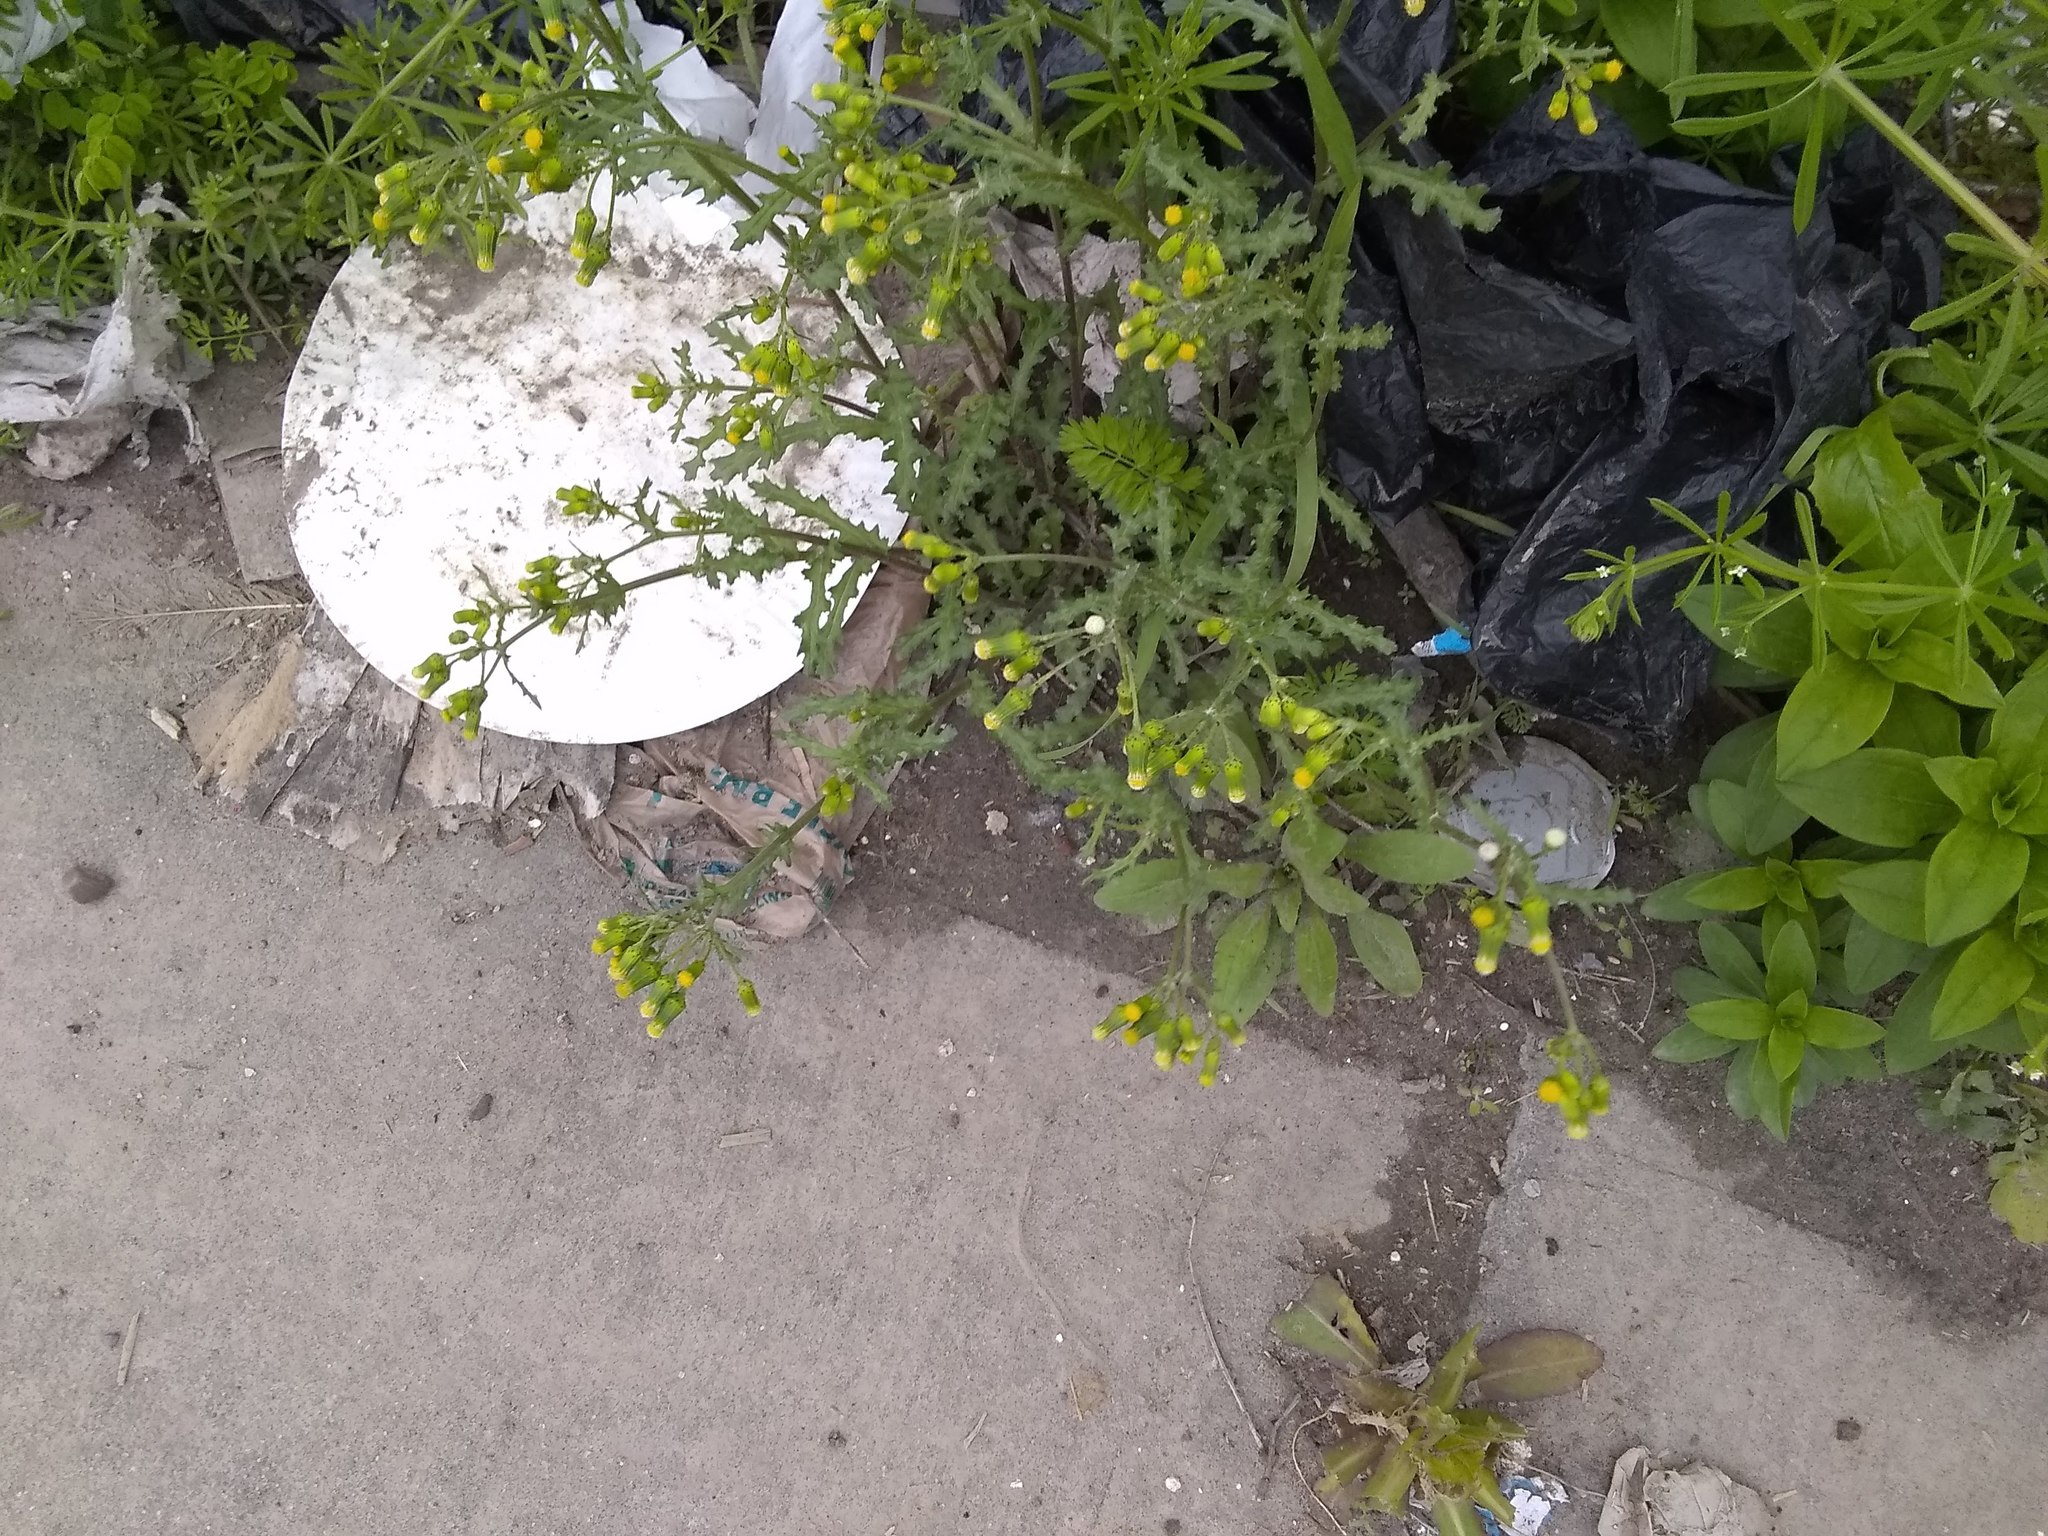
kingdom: Plantae
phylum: Tracheophyta
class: Magnoliopsida
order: Asterales
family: Asteraceae
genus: Senecio
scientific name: Senecio vulgaris
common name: Old-man-in-the-spring
